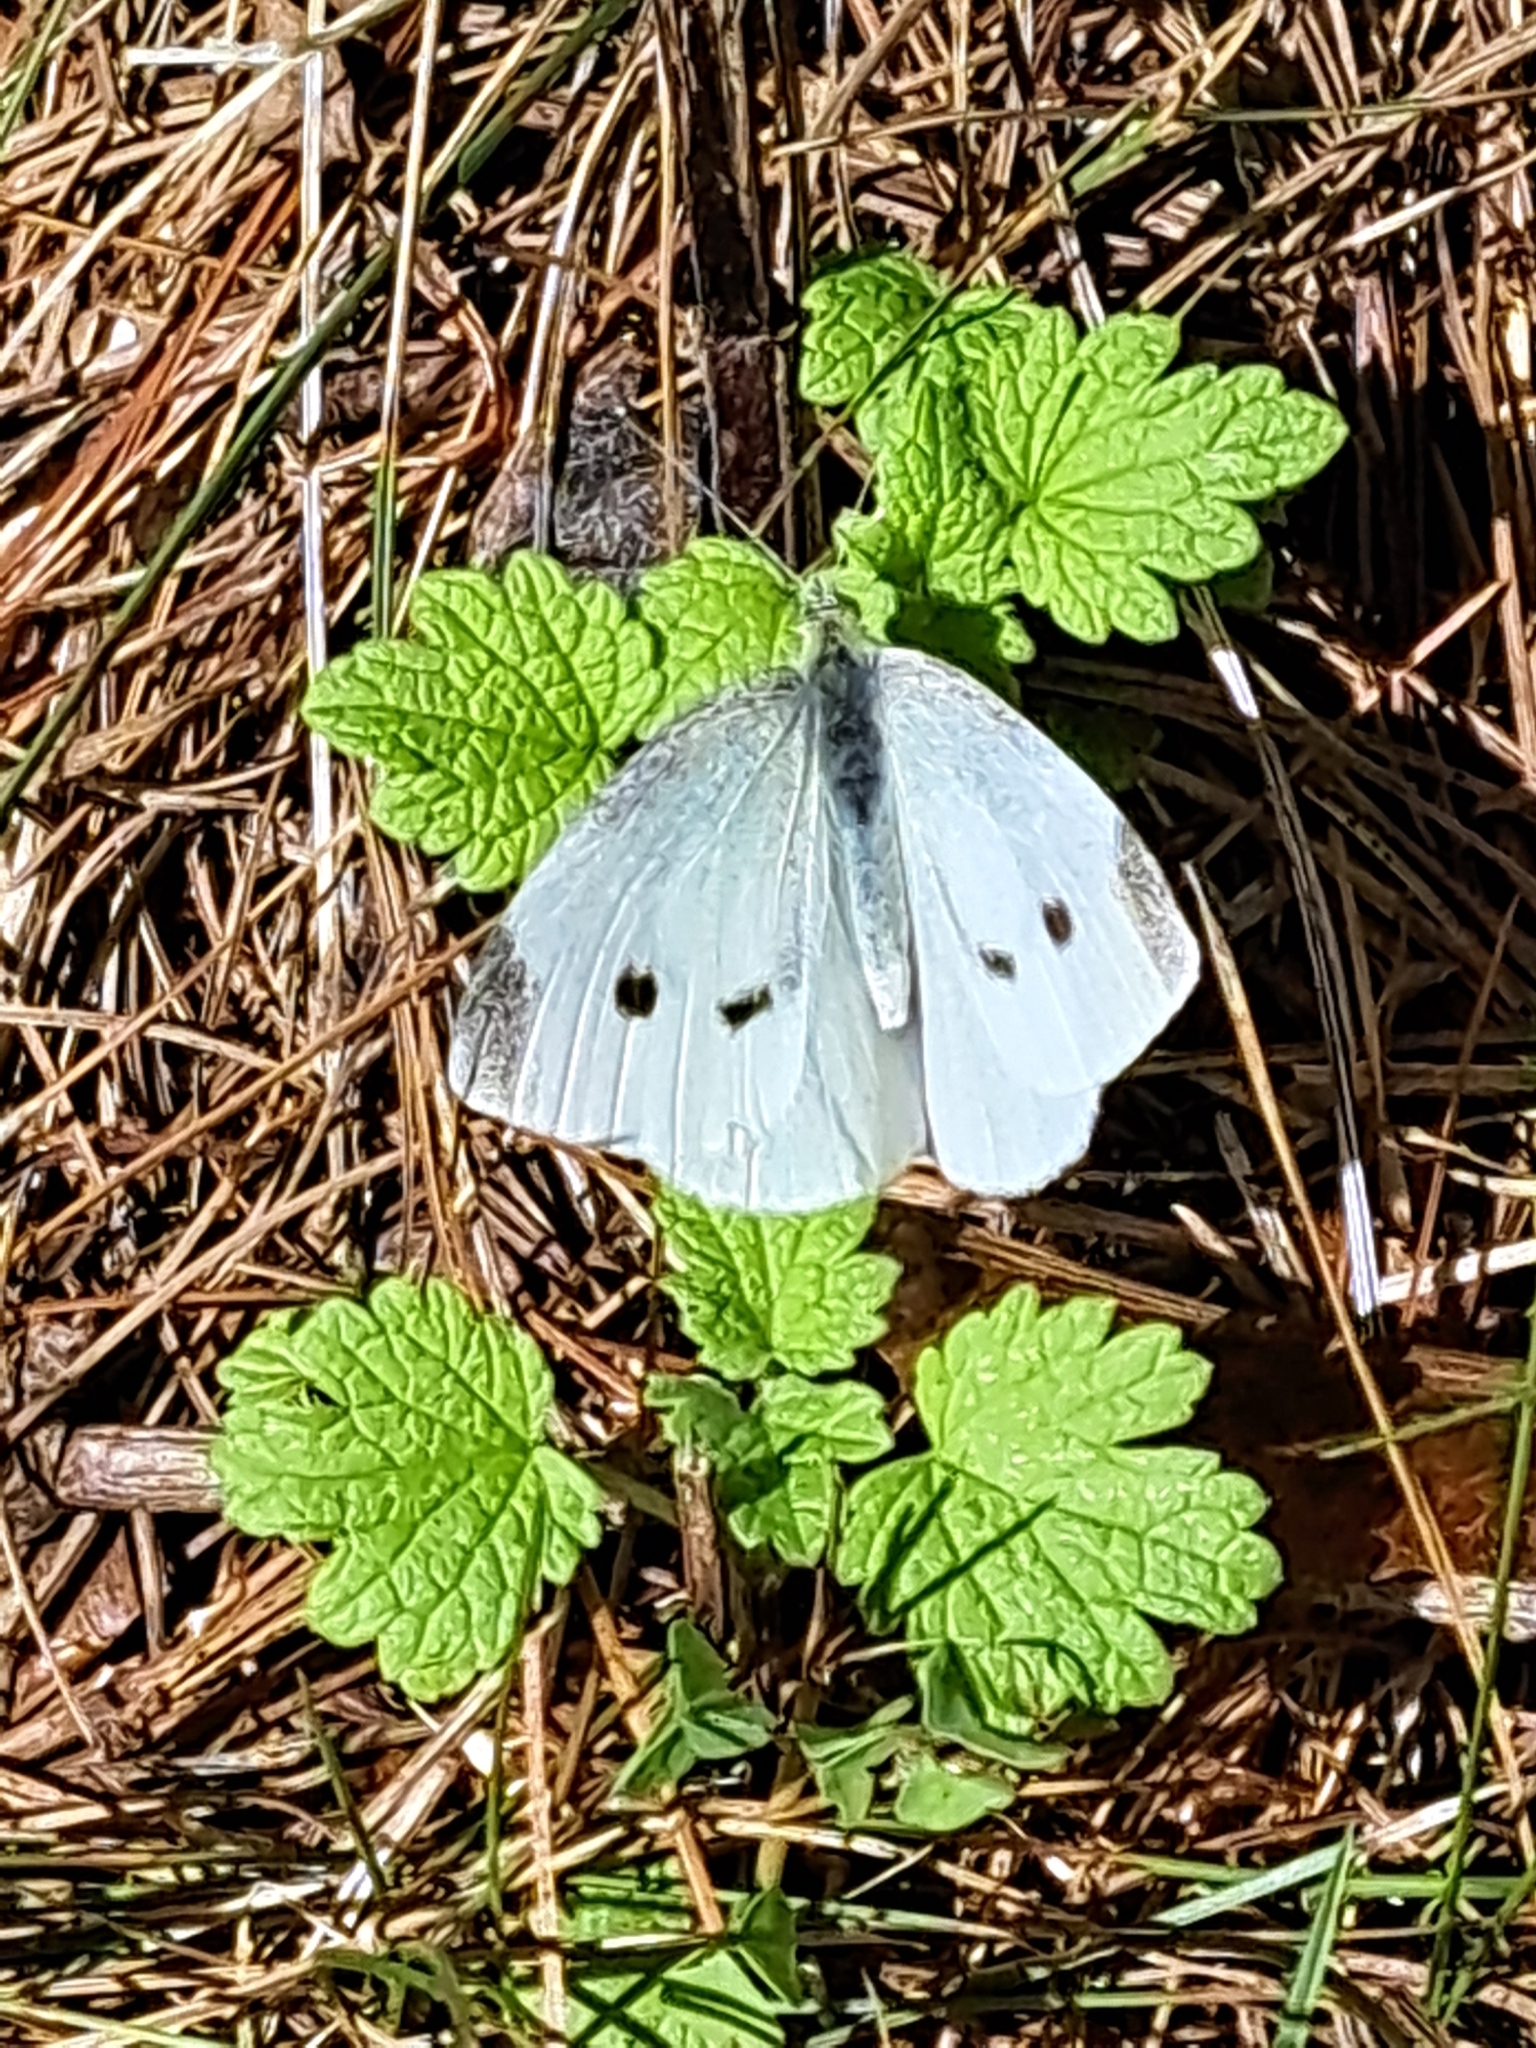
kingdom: Animalia
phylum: Arthropoda
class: Insecta
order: Lepidoptera
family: Pieridae
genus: Pieris
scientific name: Pieris rapae
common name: Small white
